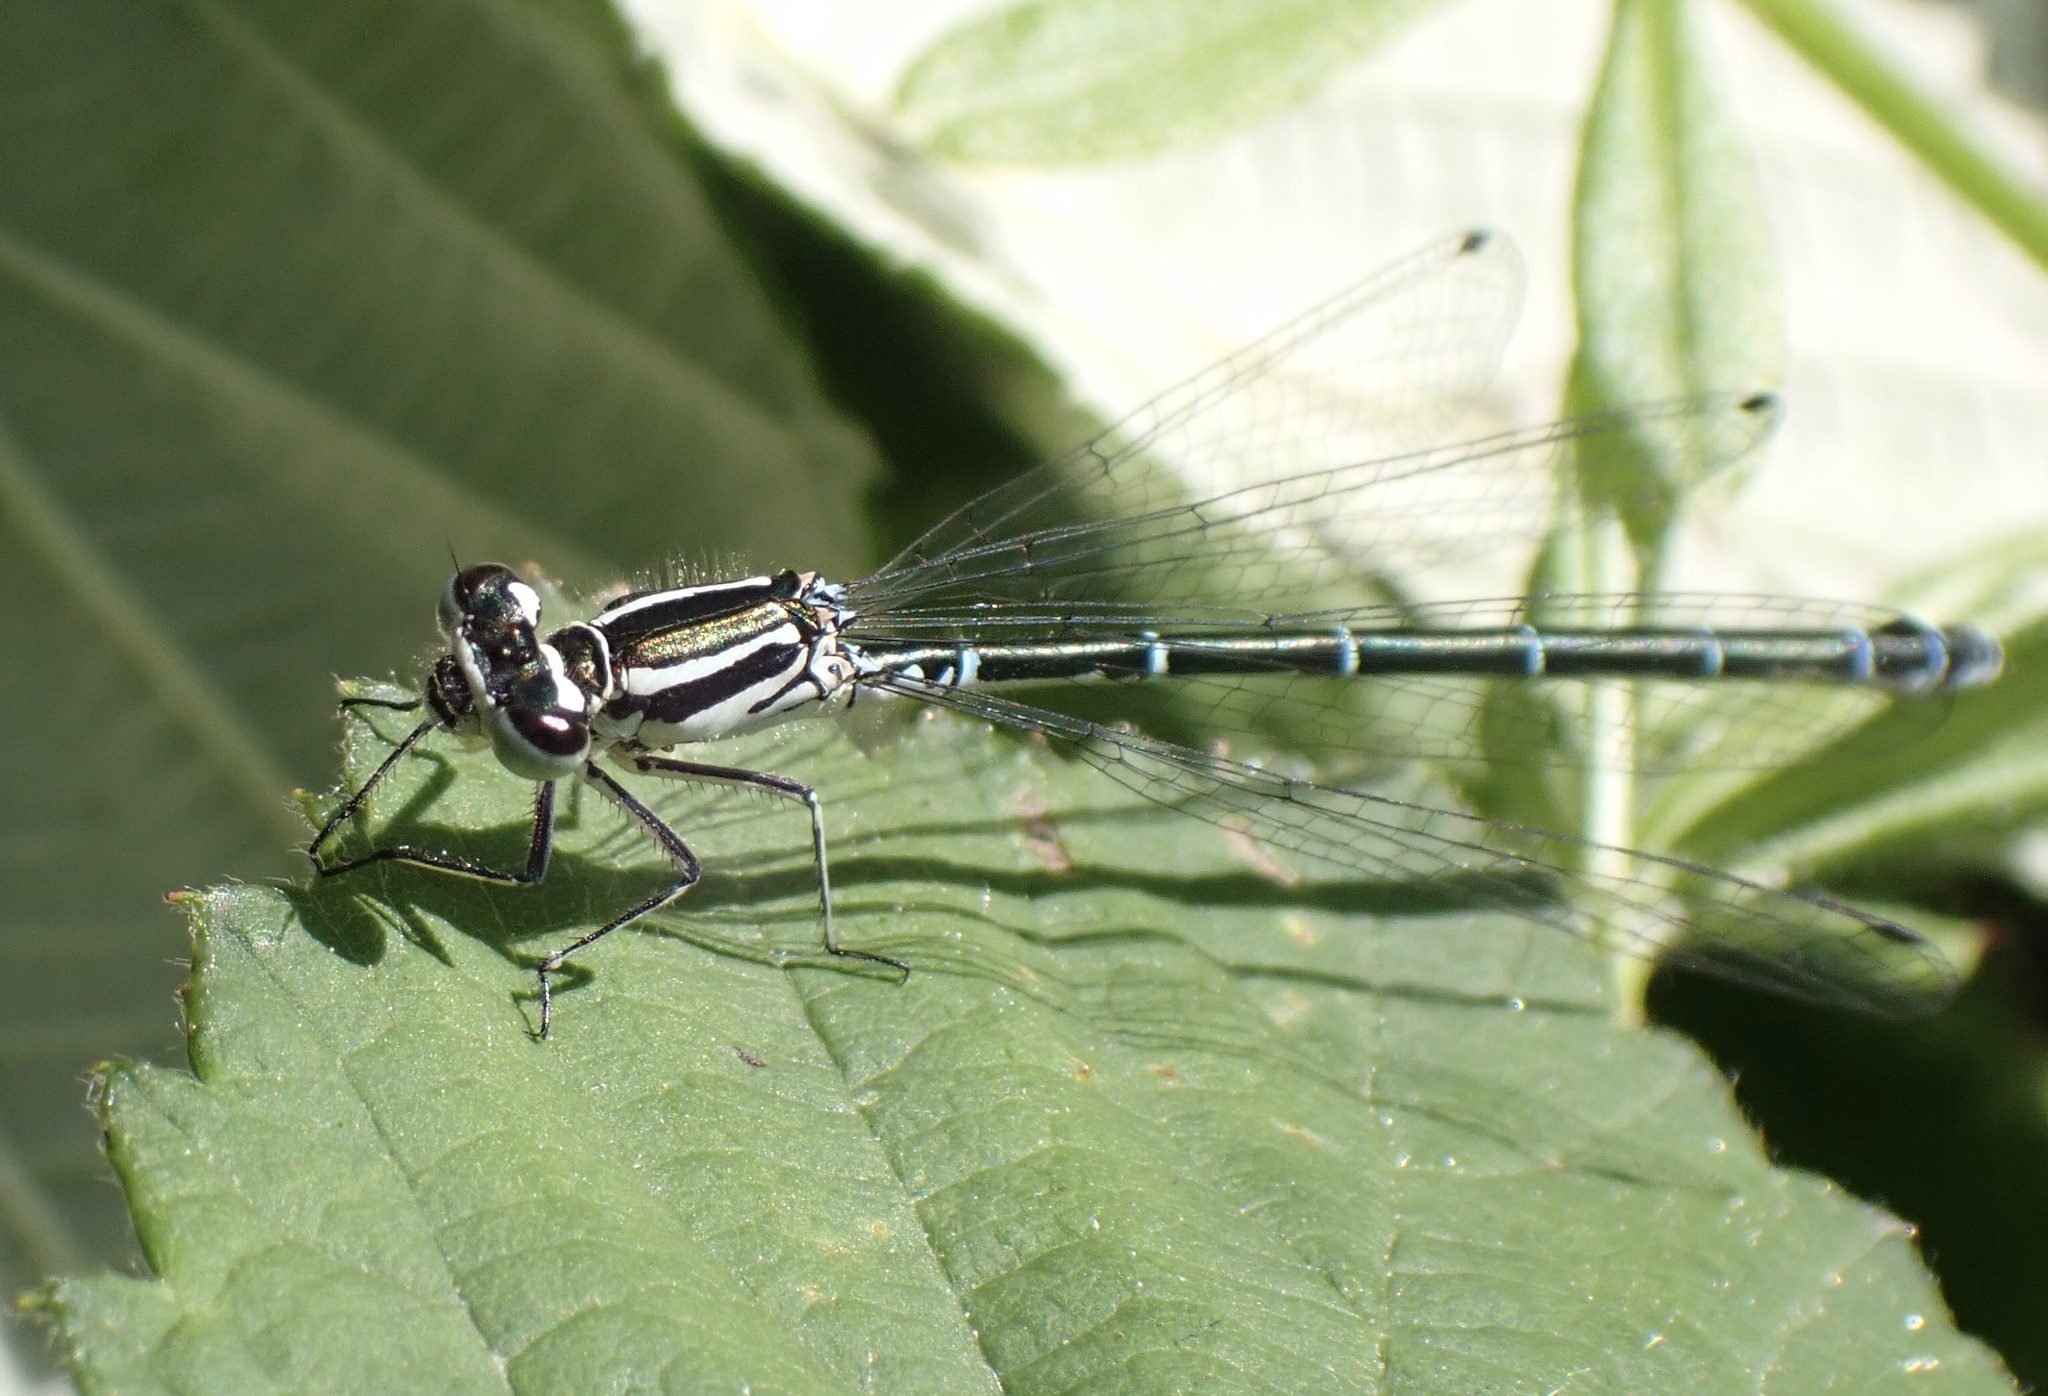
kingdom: Animalia
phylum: Arthropoda
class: Insecta
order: Odonata
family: Coenagrionidae
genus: Coenagrion
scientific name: Coenagrion puella
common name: Azure damselfly
